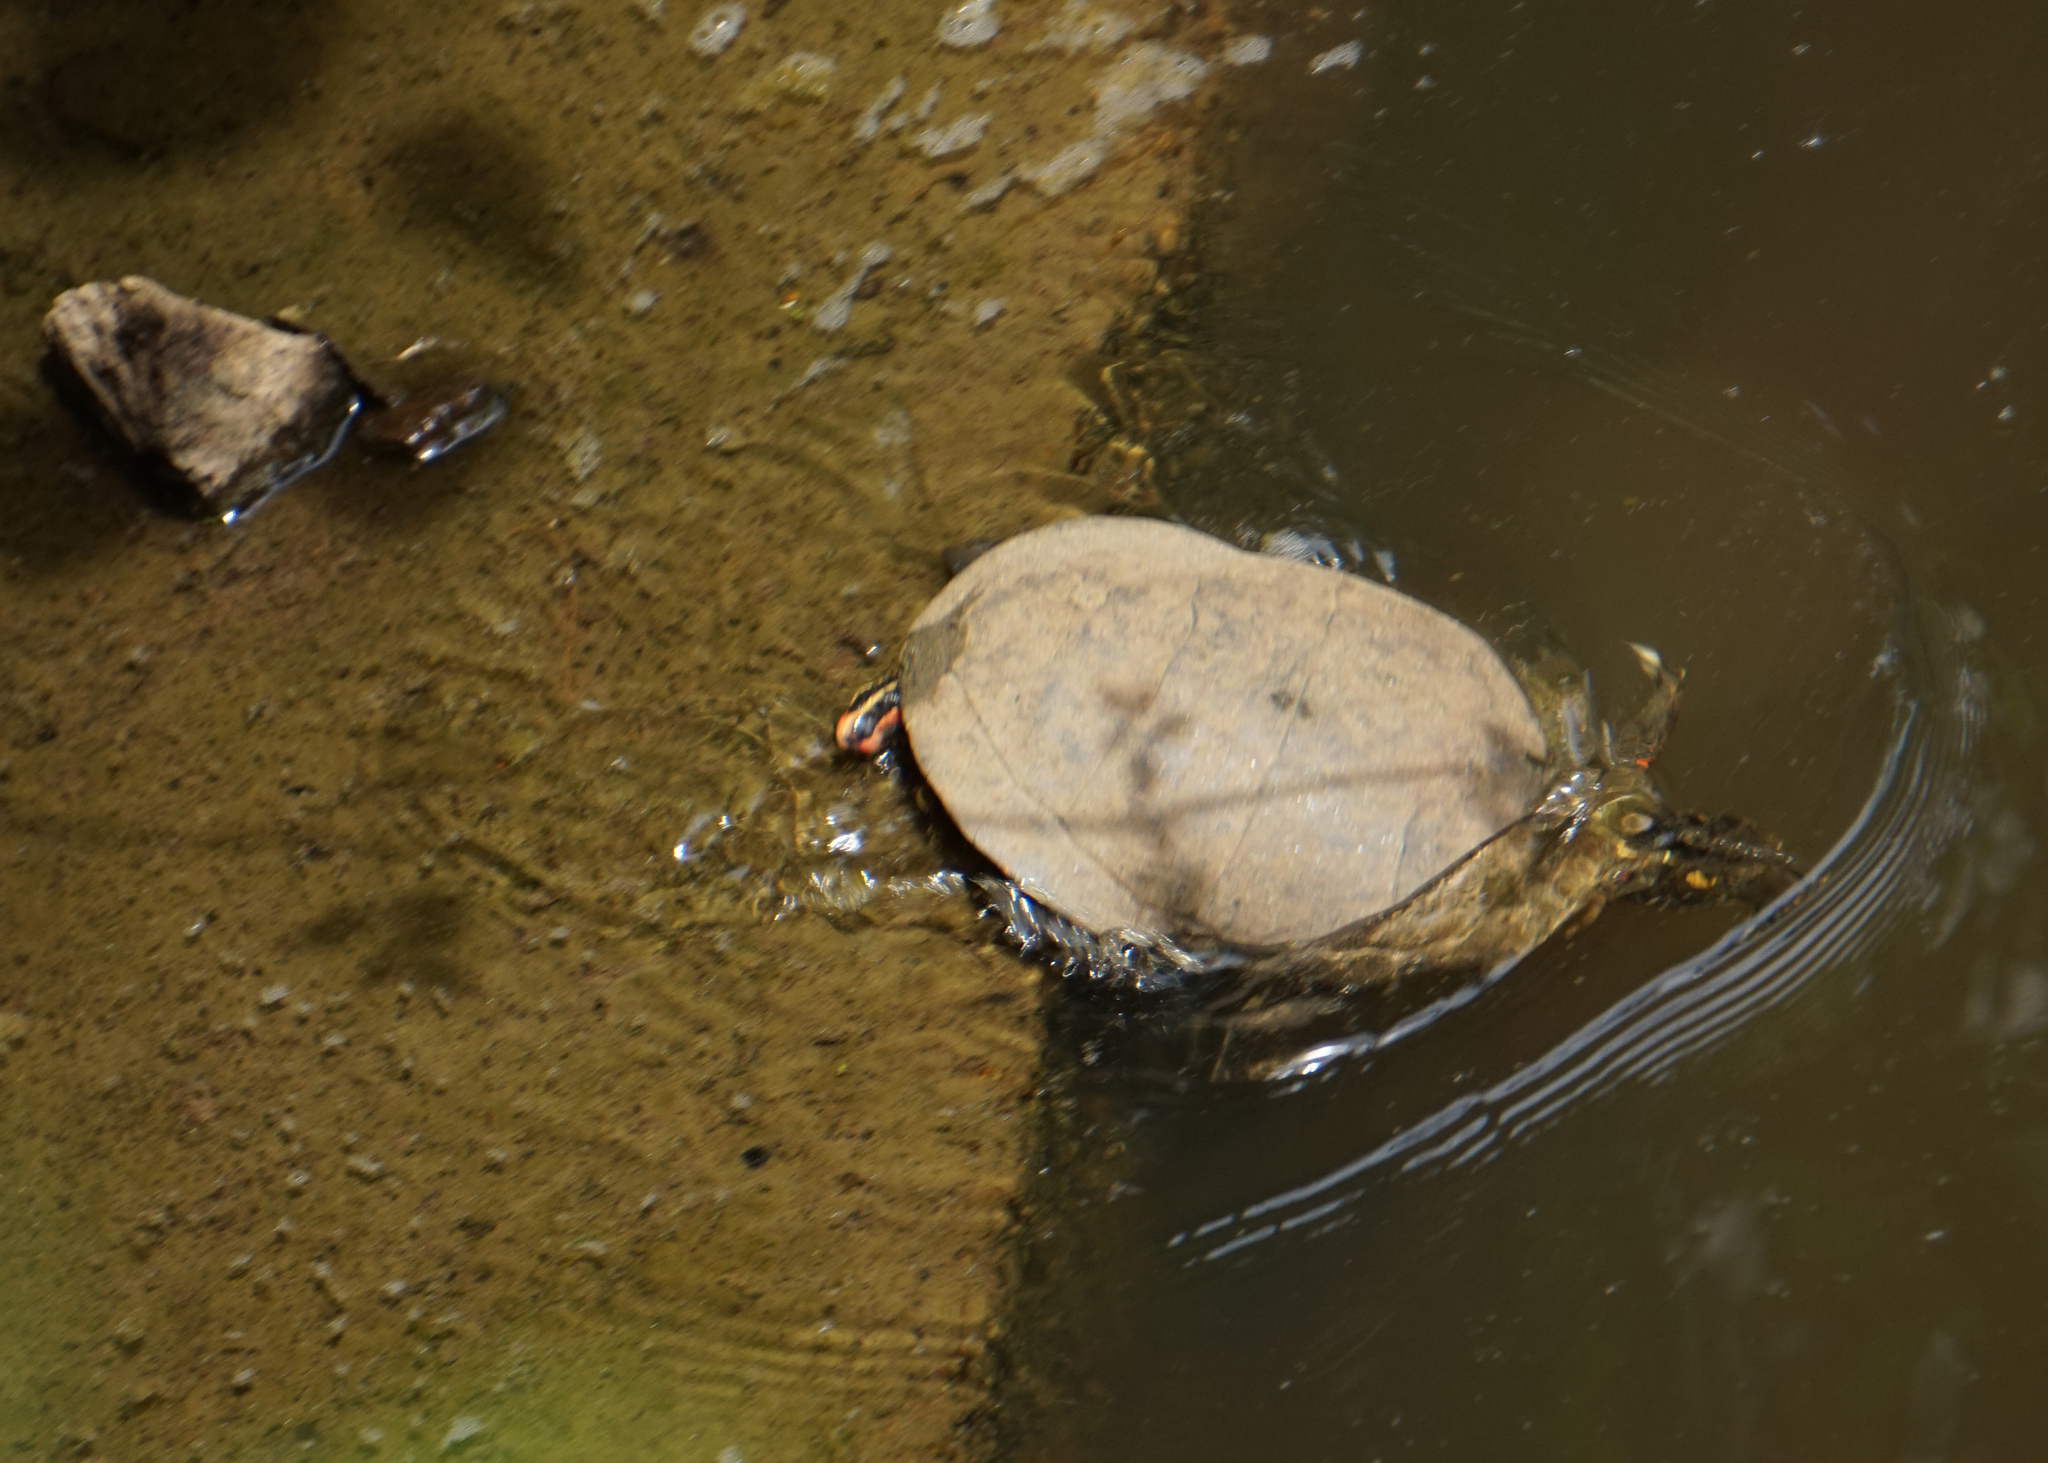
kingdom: Animalia
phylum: Chordata
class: Testudines
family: Emydidae
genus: Chrysemys
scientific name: Chrysemys picta
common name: Painted turtle
